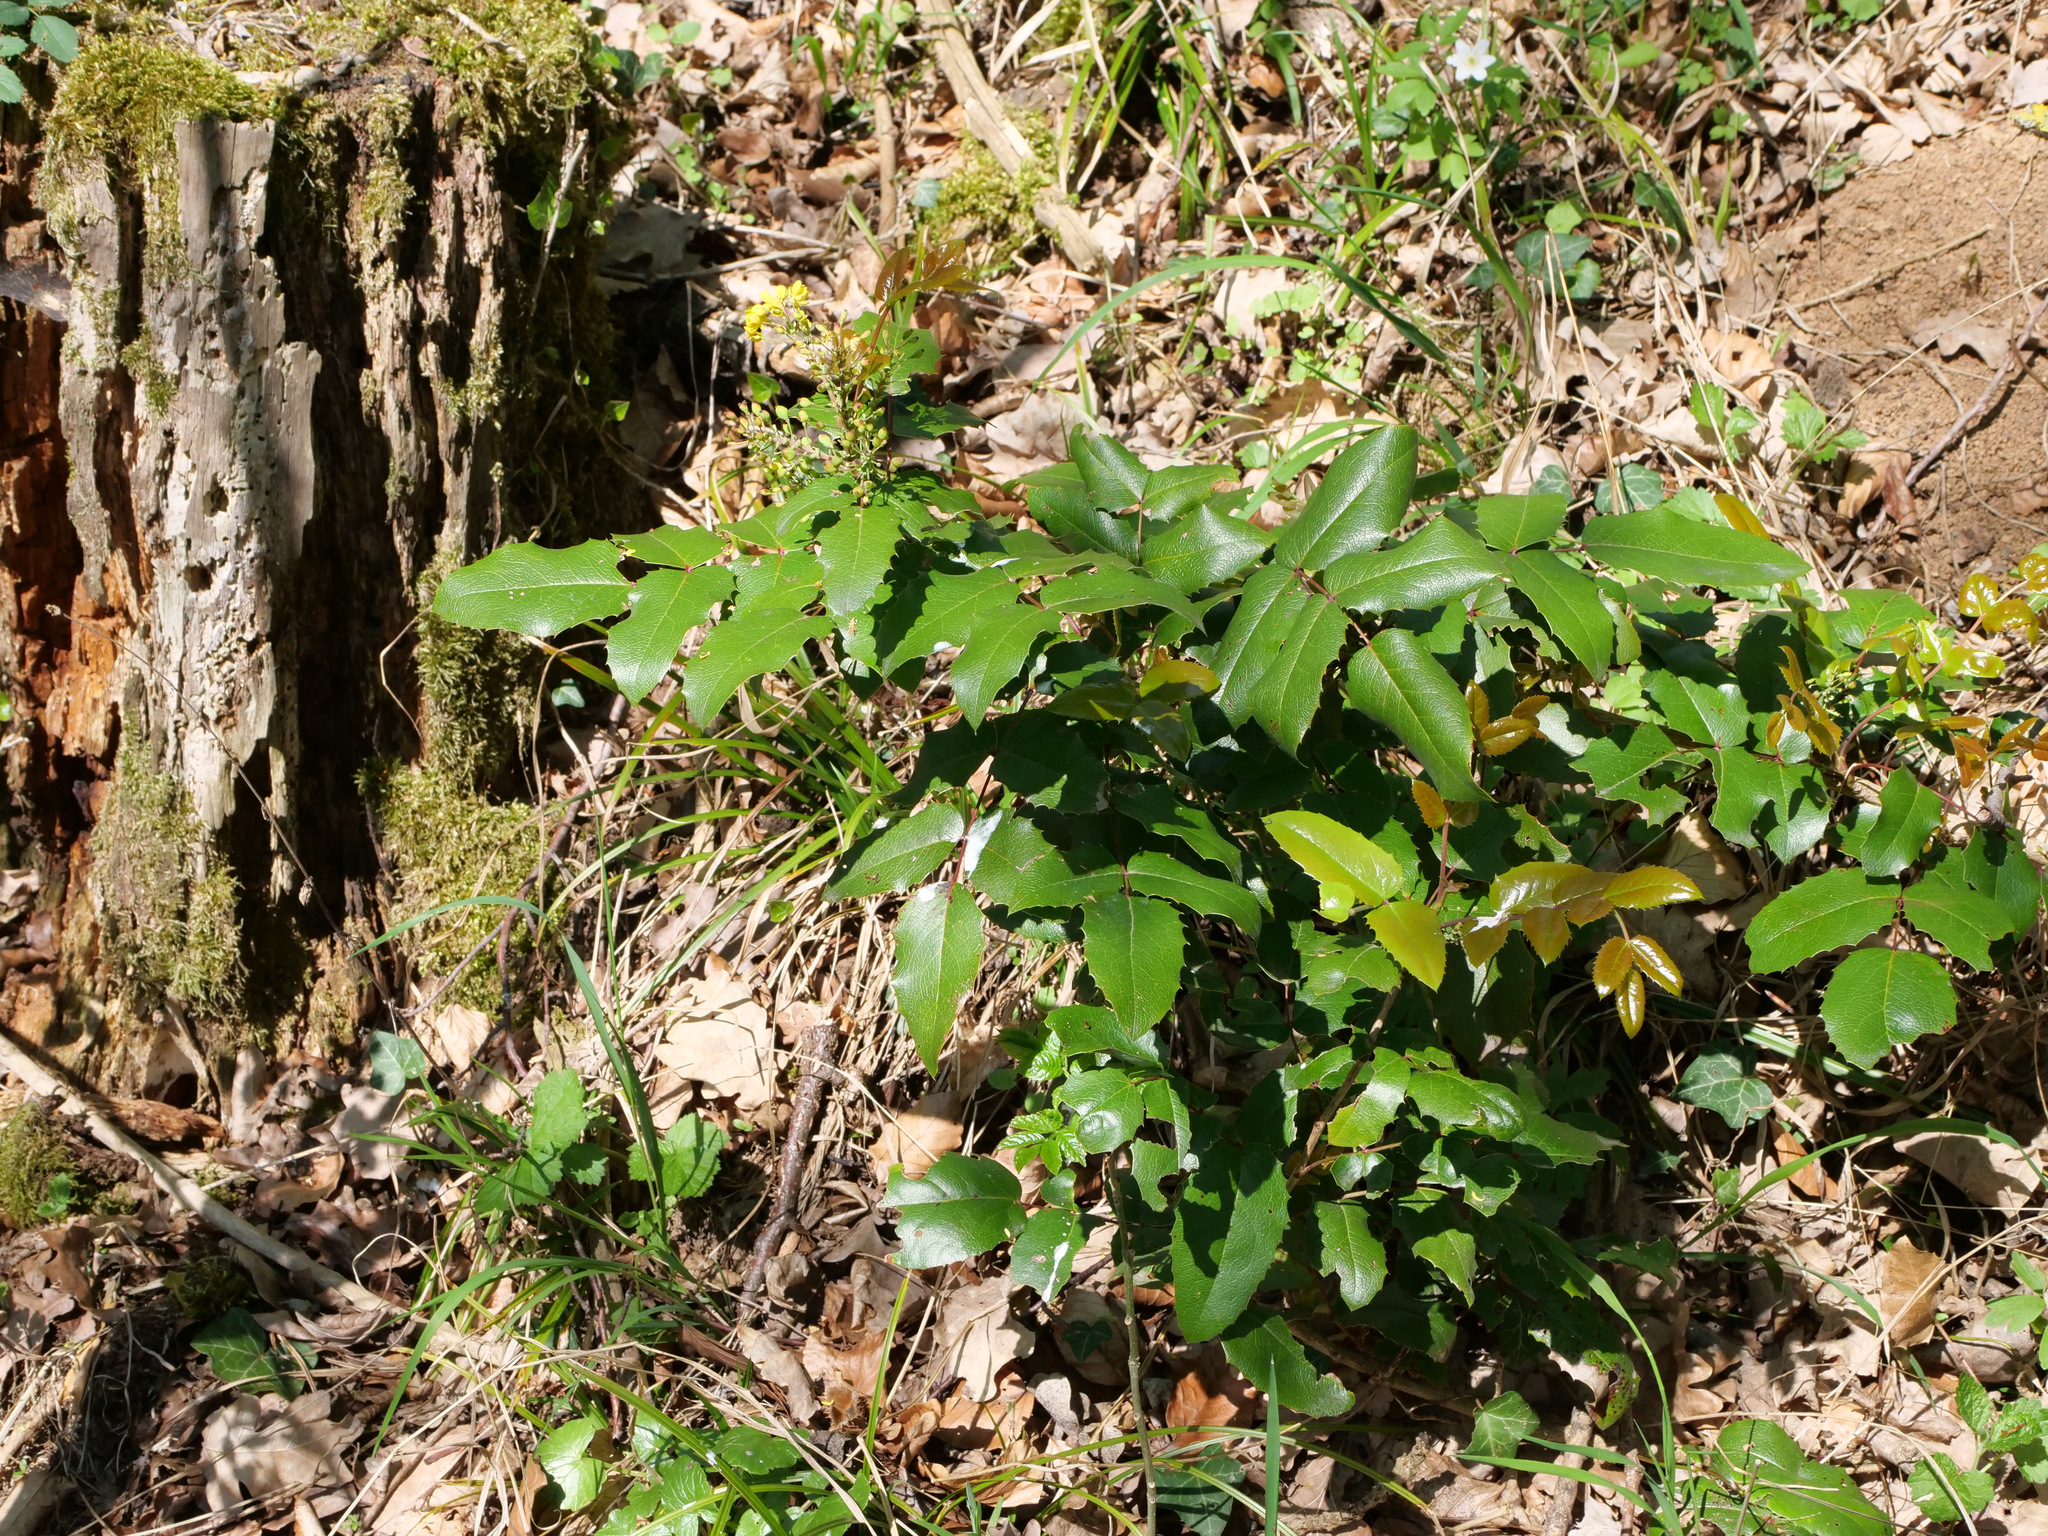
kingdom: Plantae
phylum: Tracheophyta
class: Magnoliopsida
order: Ranunculales
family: Berberidaceae
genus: Mahonia
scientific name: Mahonia aquifolium
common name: Oregon-grape
